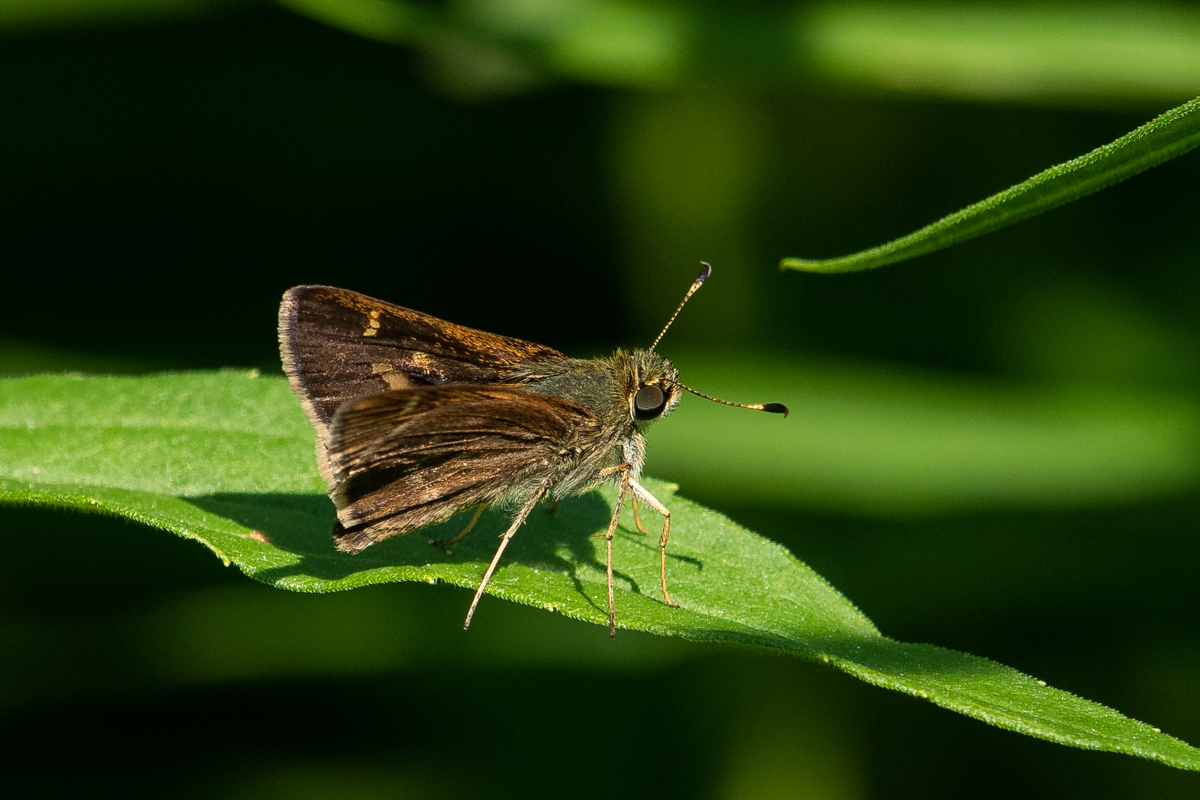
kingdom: Animalia
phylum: Arthropoda
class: Insecta
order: Lepidoptera
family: Hesperiidae
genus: Vernia
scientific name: Vernia verna
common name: Little glassywing
